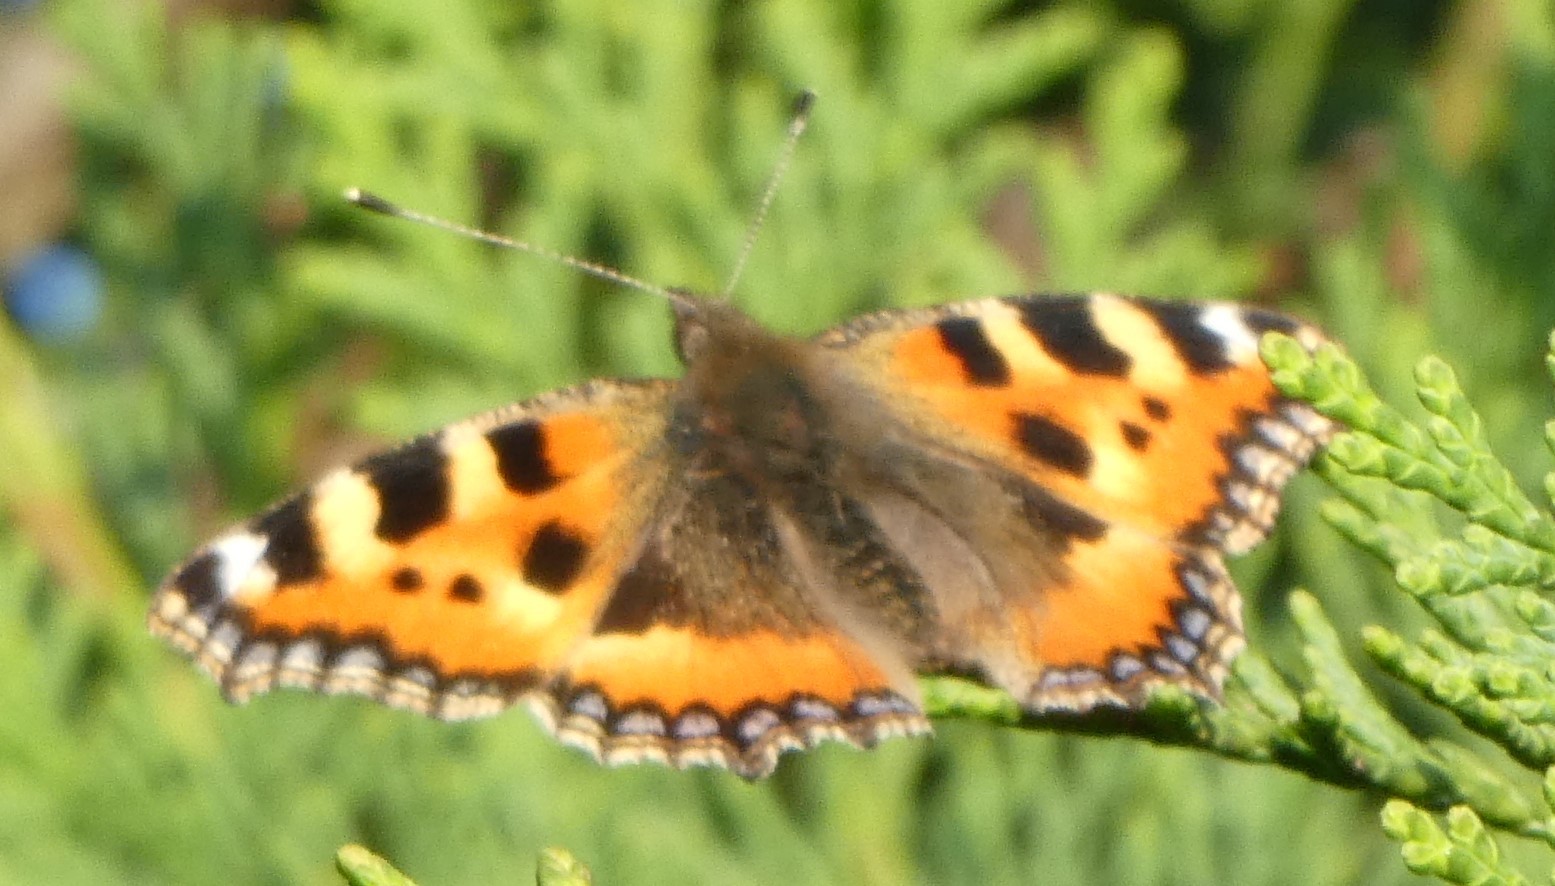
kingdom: Animalia
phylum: Arthropoda
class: Insecta
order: Lepidoptera
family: Nymphalidae
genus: Aglais
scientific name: Aglais urticae
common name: Small tortoiseshell
